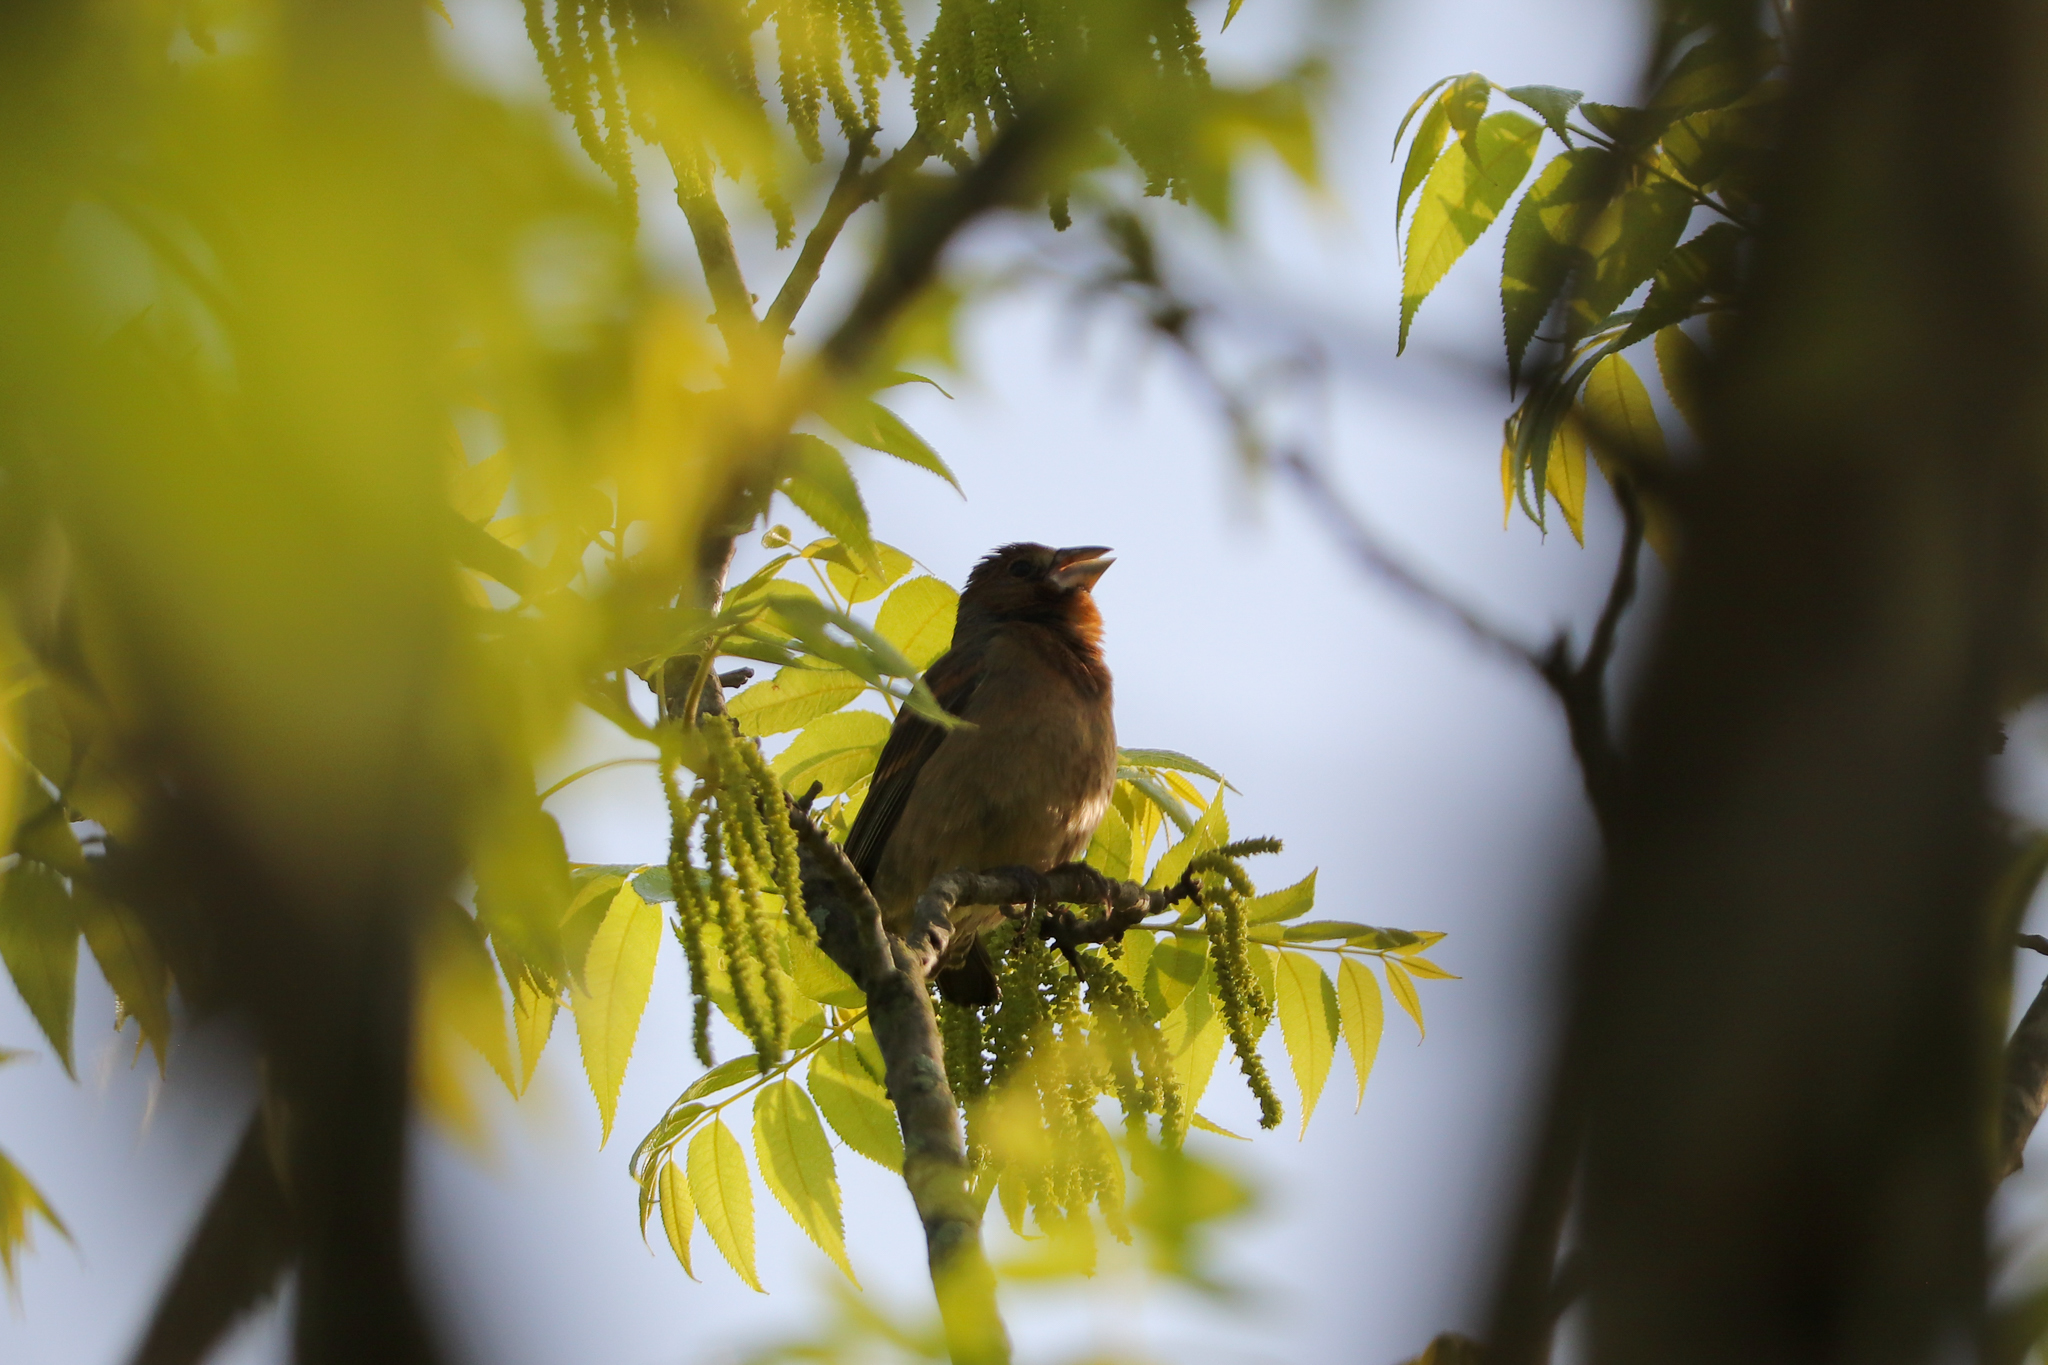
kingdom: Animalia
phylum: Chordata
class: Aves
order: Passeriformes
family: Cardinalidae
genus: Passerina
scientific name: Passerina caerulea
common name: Blue grosbeak
